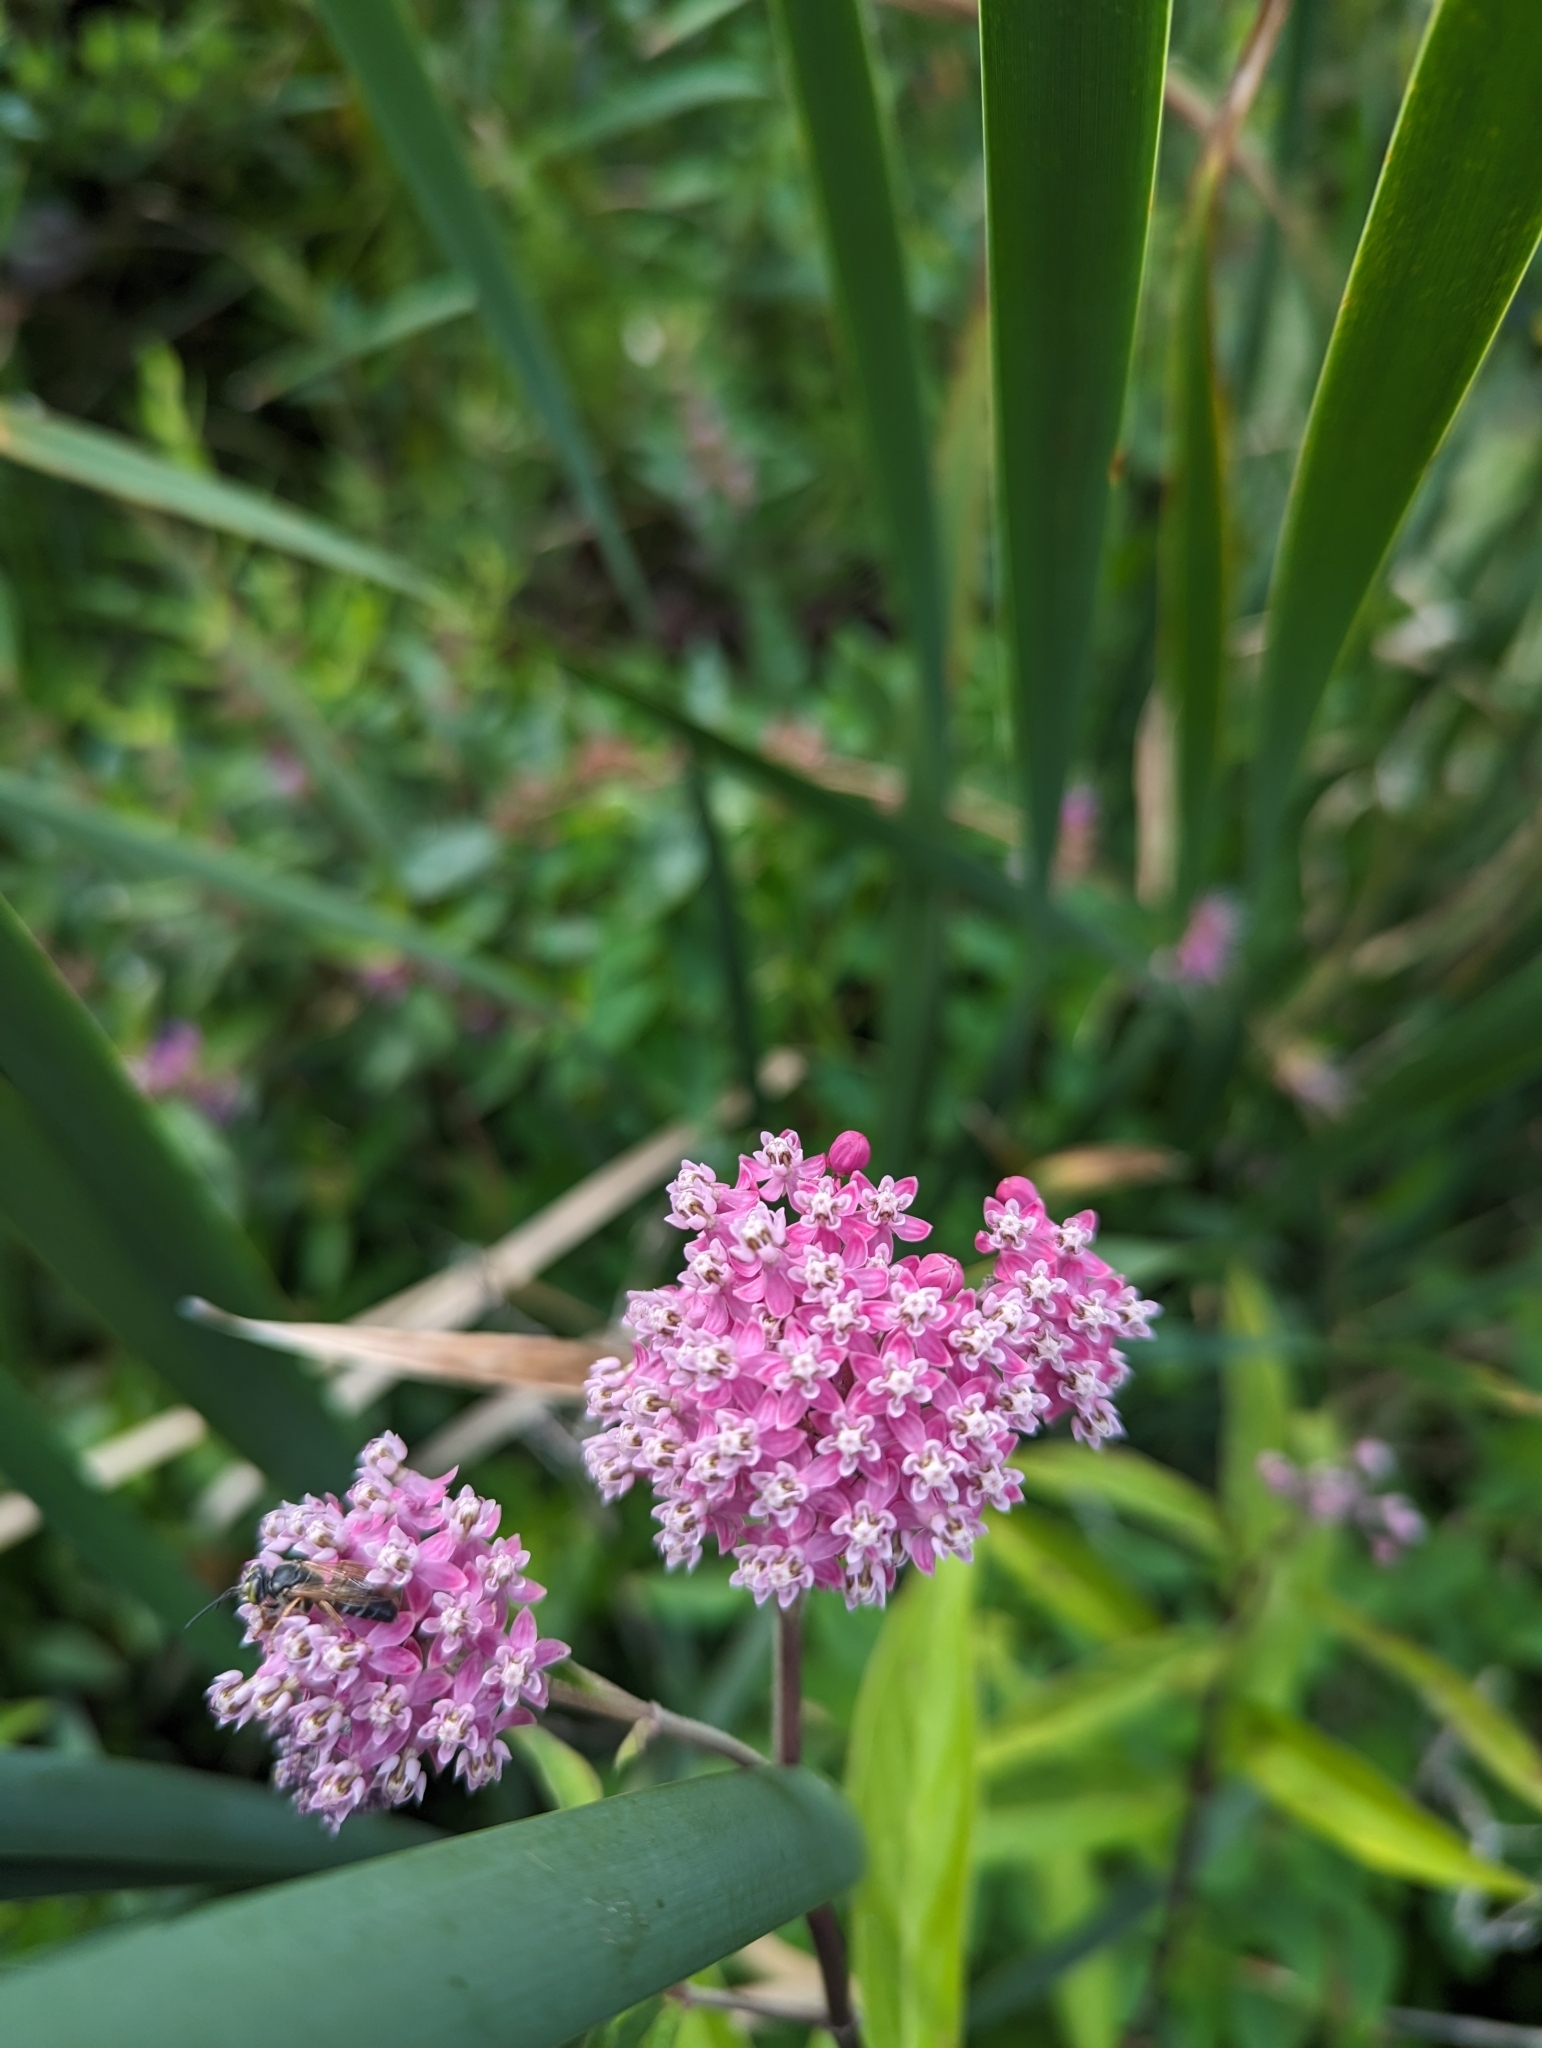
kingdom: Plantae
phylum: Tracheophyta
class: Magnoliopsida
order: Gentianales
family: Apocynaceae
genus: Asclepias
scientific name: Asclepias incarnata
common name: Swamp milkweed
